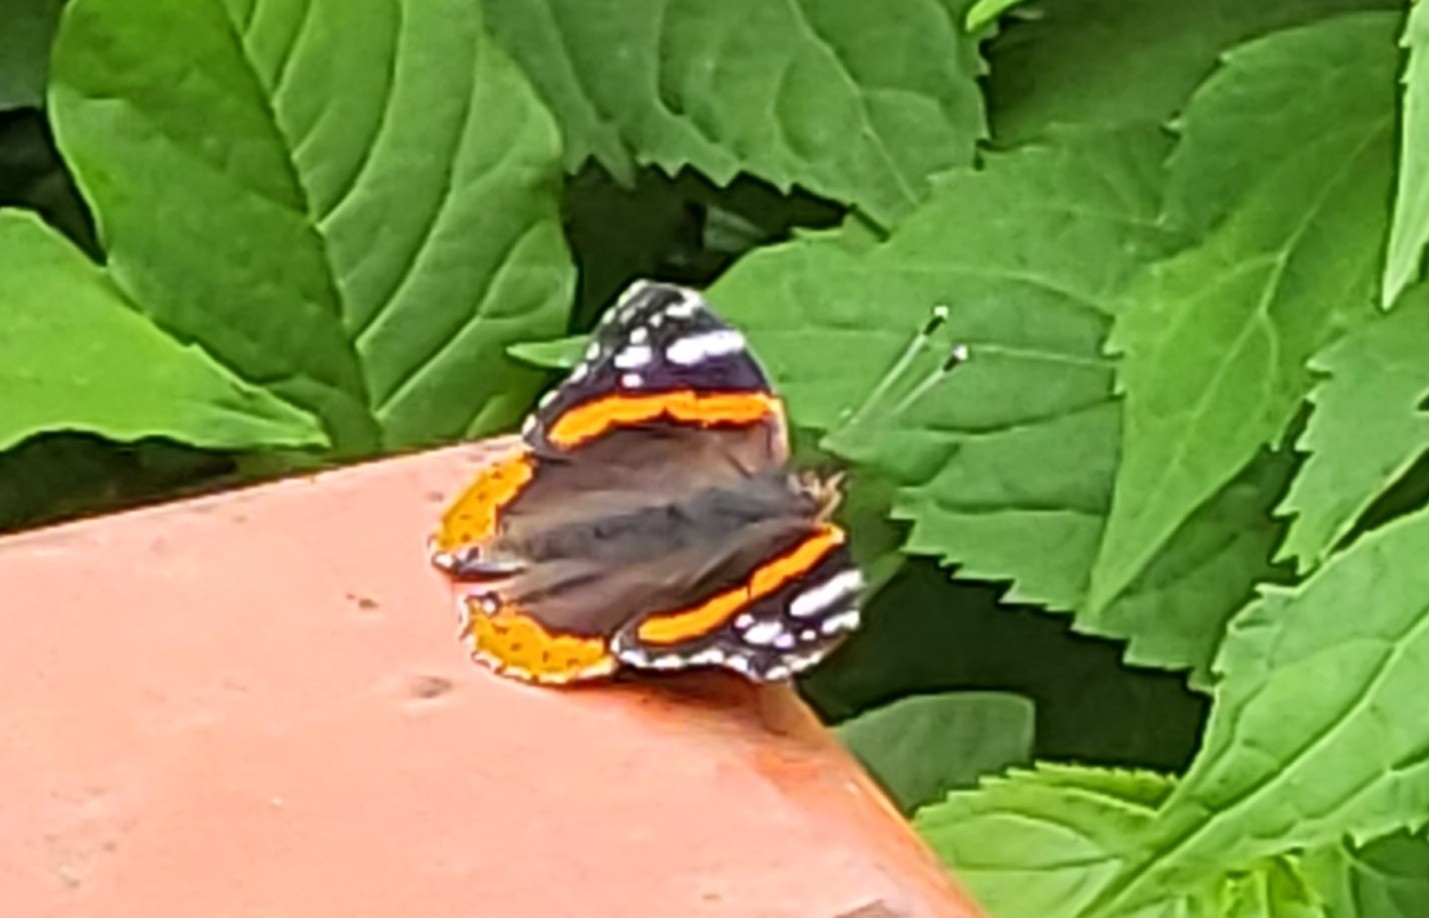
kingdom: Animalia
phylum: Arthropoda
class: Insecta
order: Lepidoptera
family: Nymphalidae
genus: Vanessa
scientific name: Vanessa atalanta
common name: Red admiral
